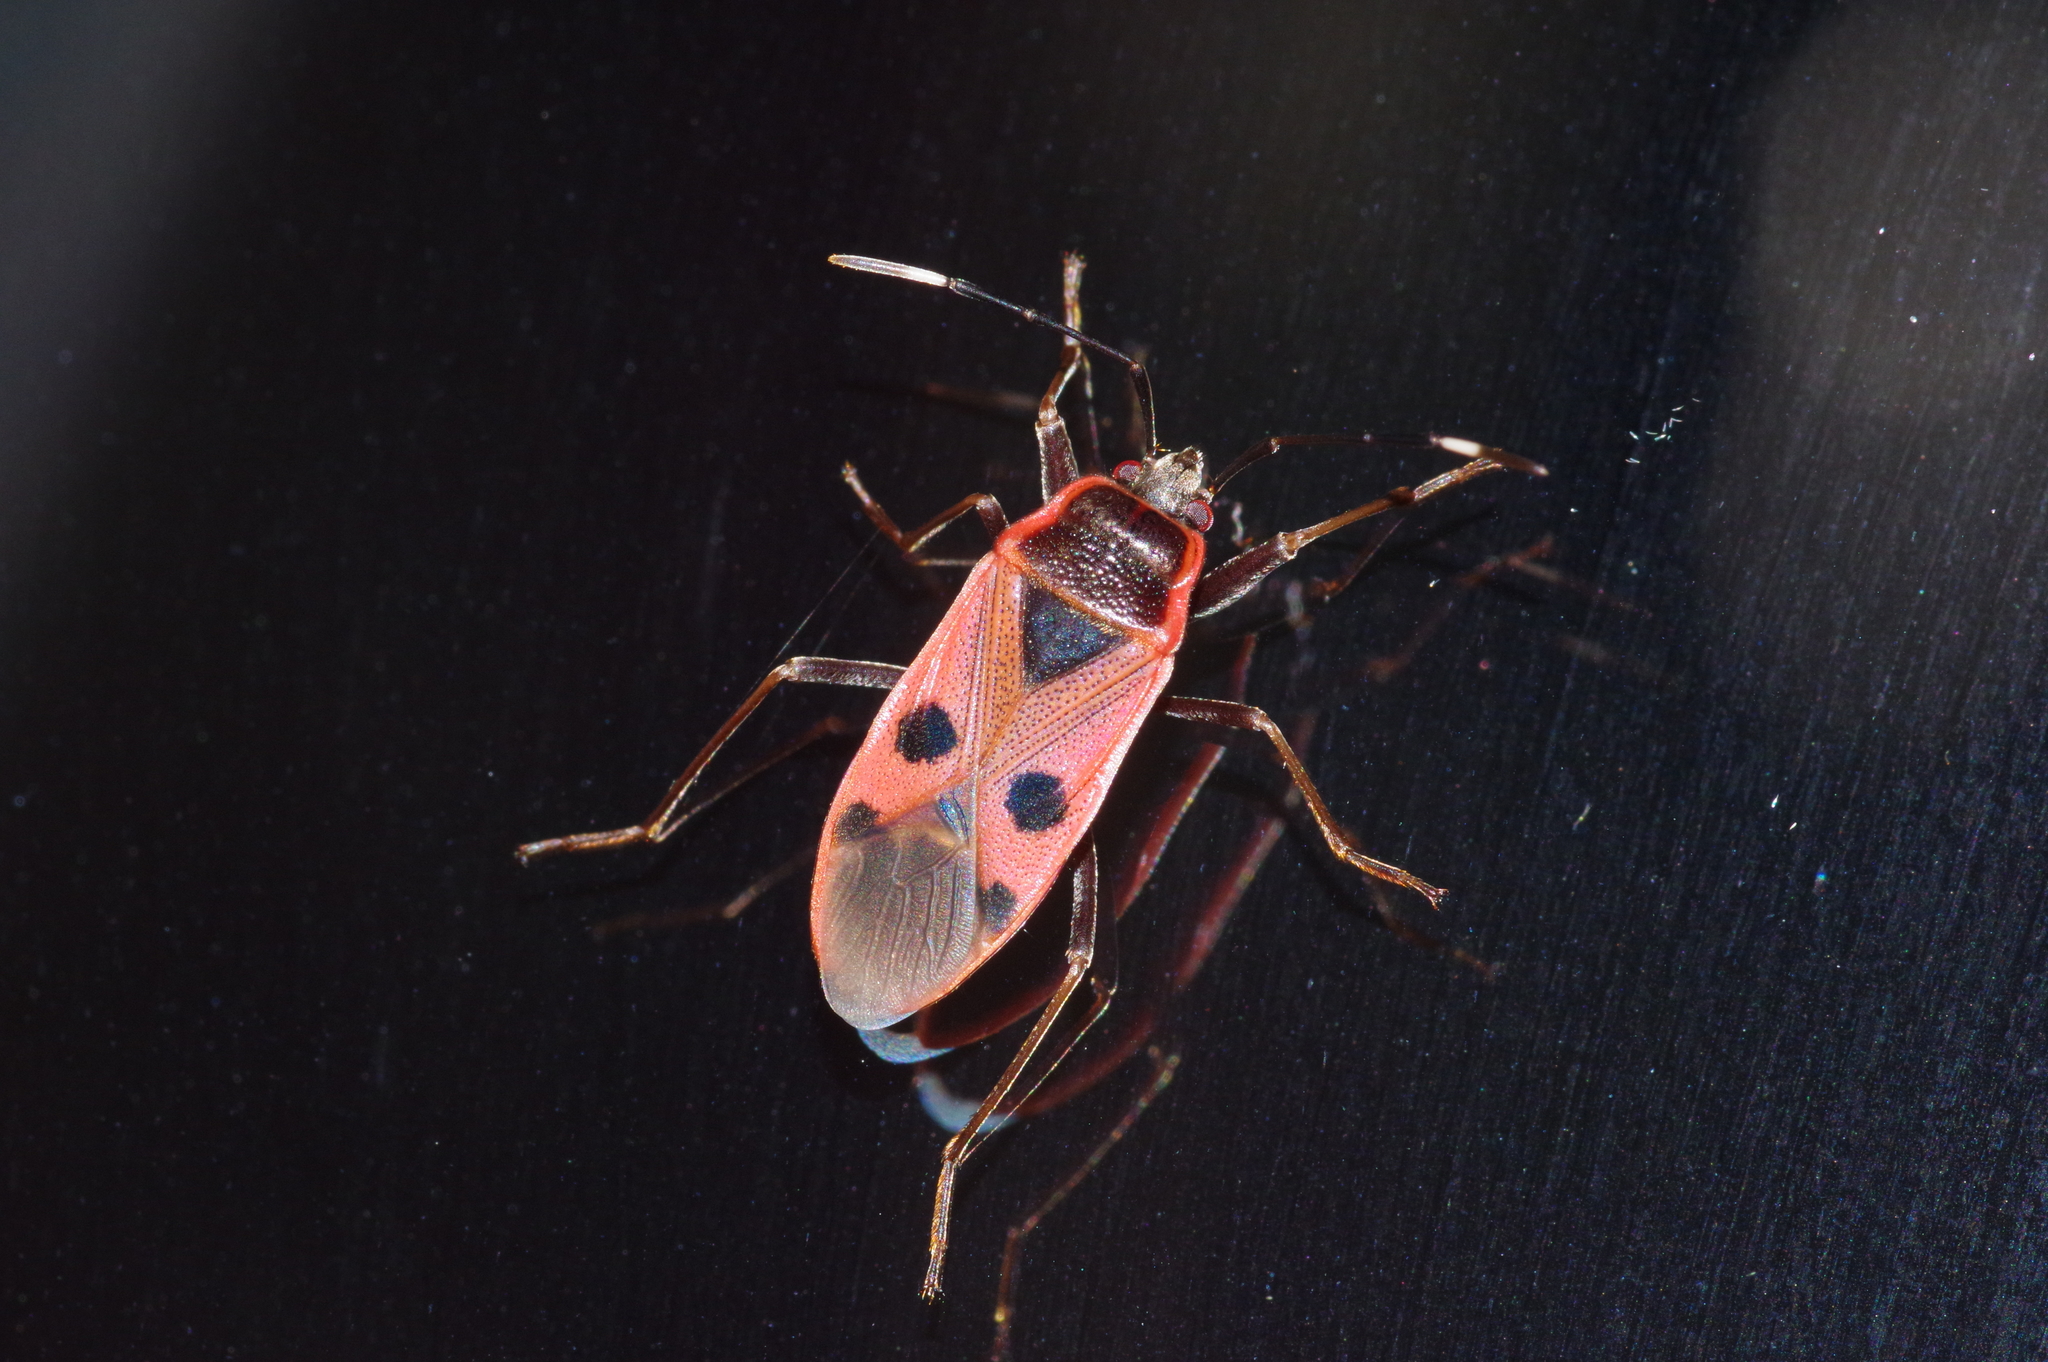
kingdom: Animalia
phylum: Arthropoda
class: Insecta
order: Hemiptera
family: Largidae
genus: Physopelta
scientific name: Physopelta parviceps
